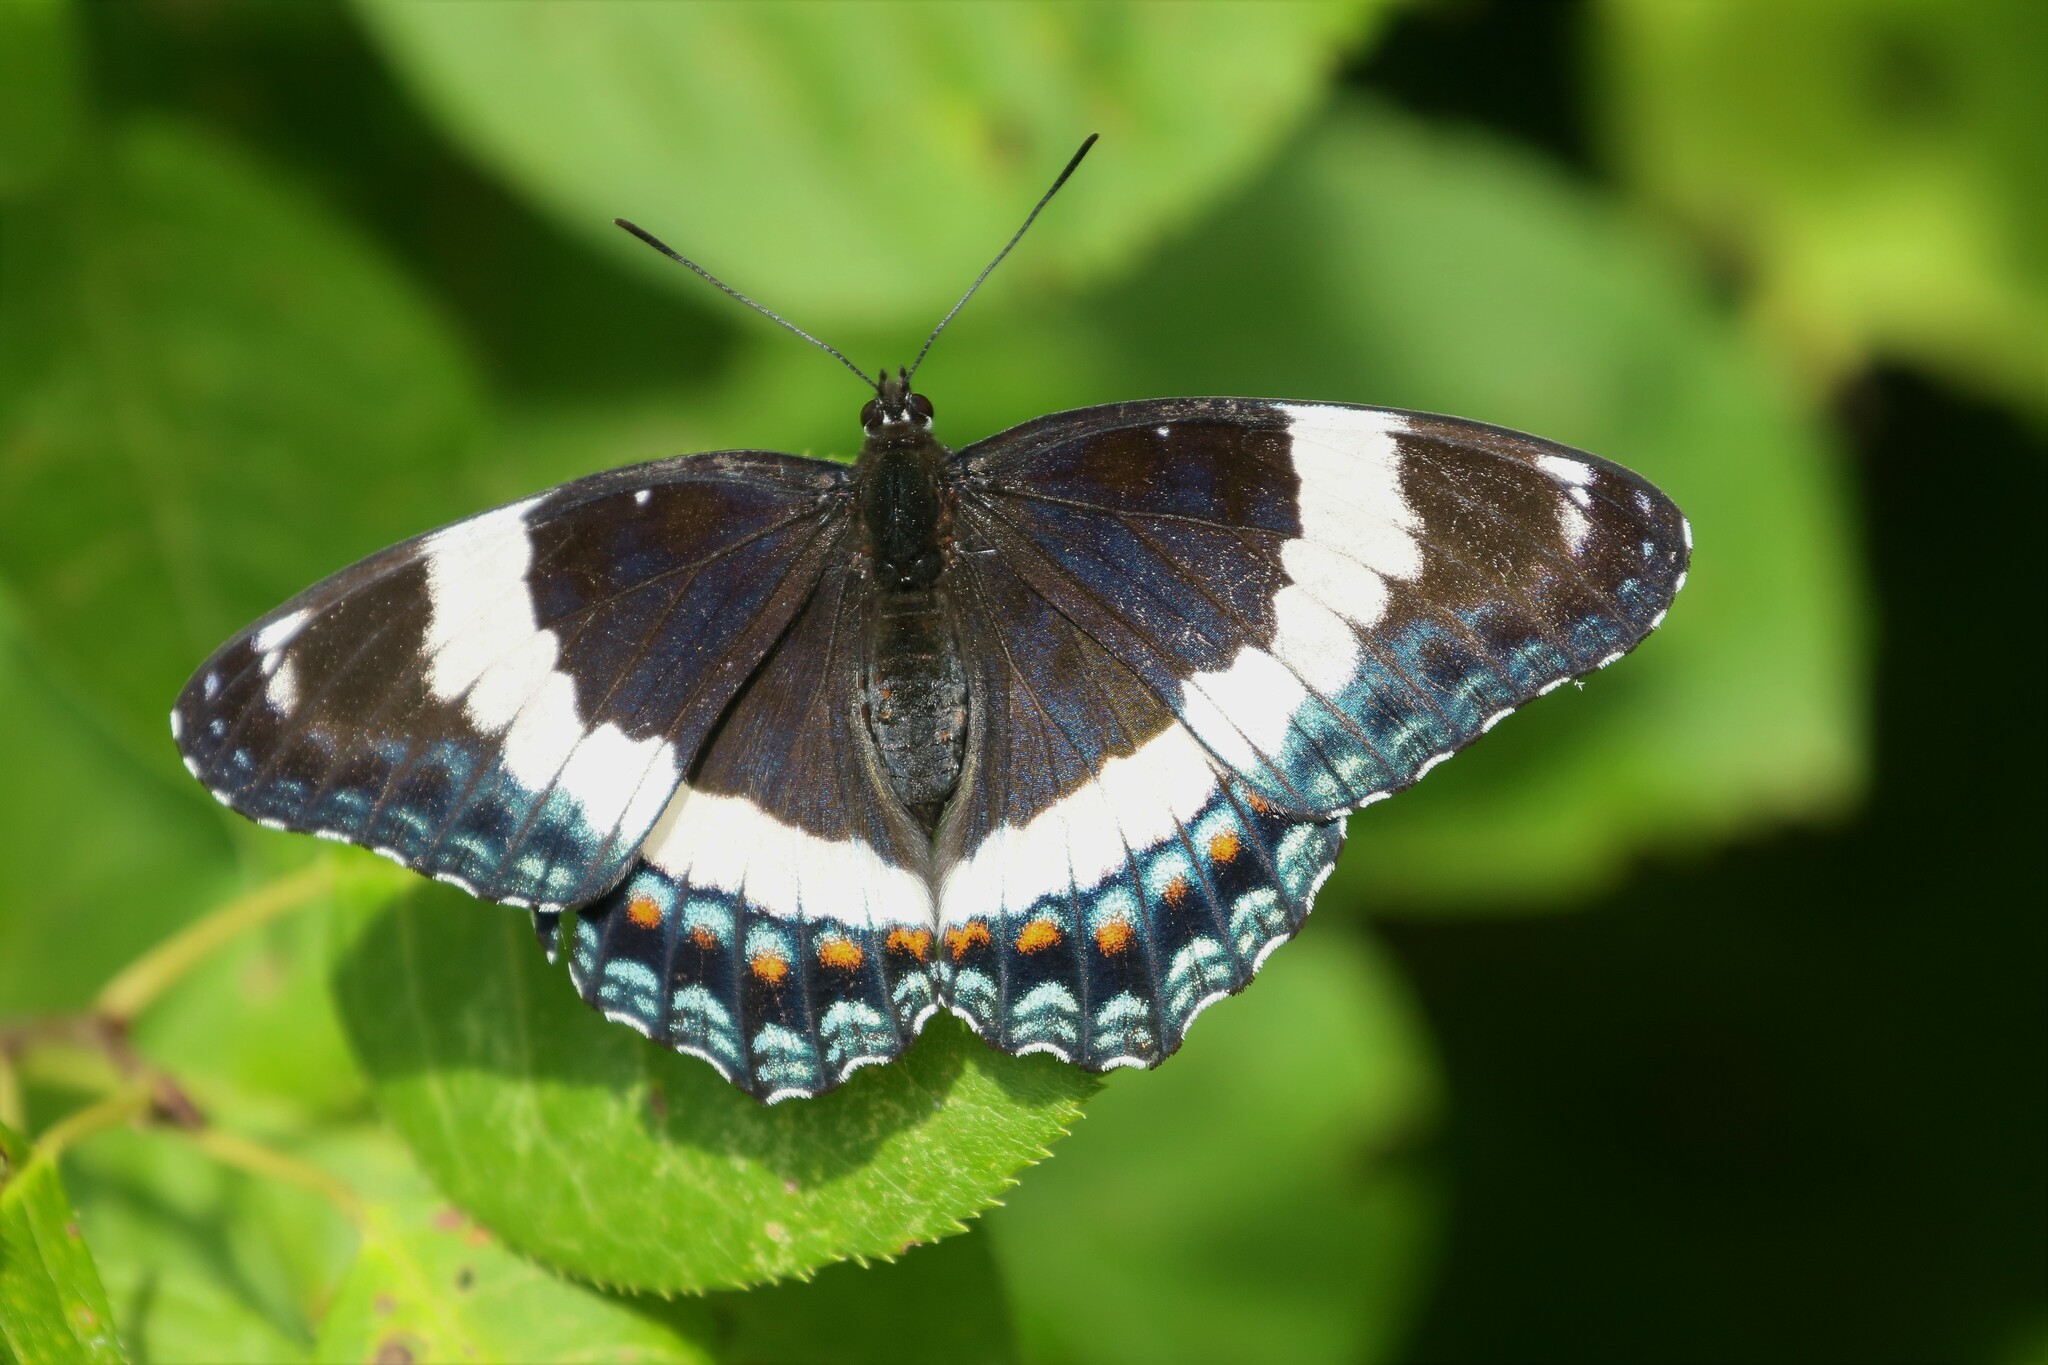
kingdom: Animalia
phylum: Arthropoda
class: Insecta
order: Lepidoptera
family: Nymphalidae
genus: Limenitis
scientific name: Limenitis arthemis
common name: Red-spotted admiral
